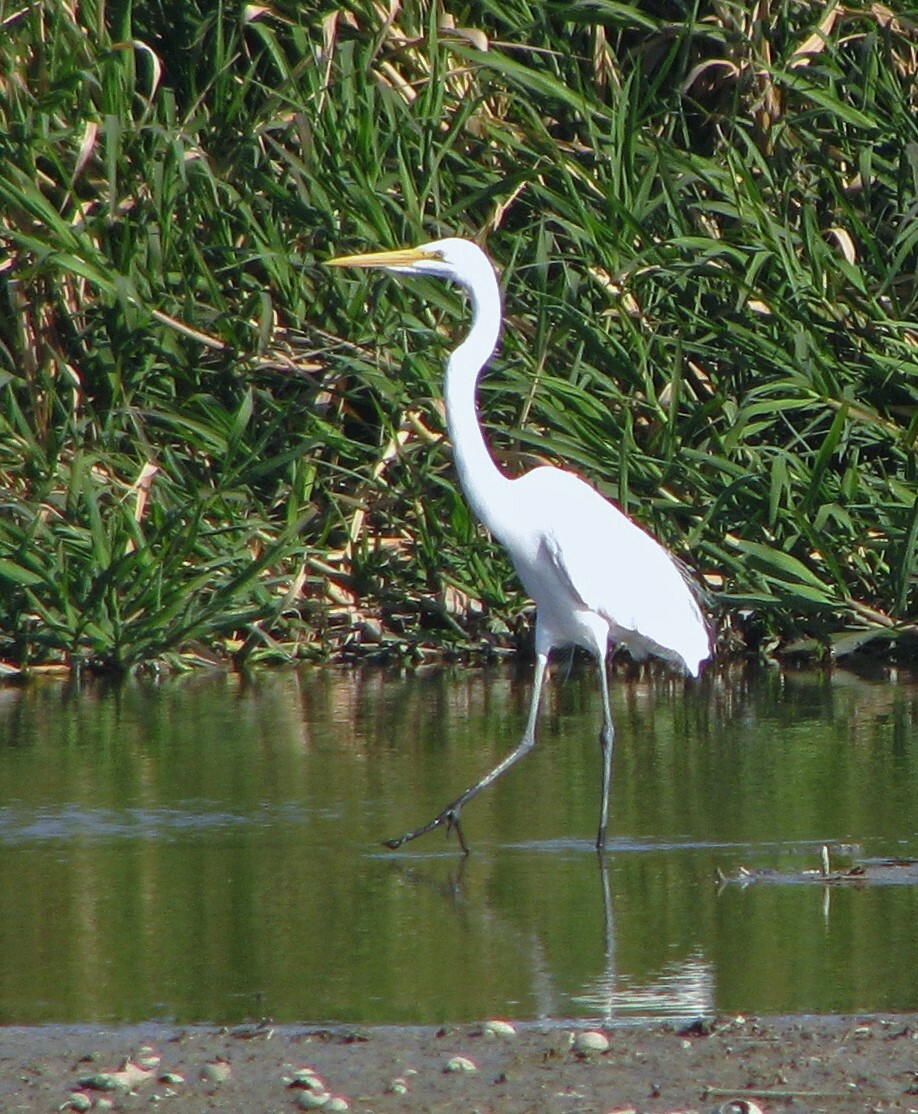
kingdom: Animalia
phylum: Chordata
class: Aves
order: Pelecaniformes
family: Ardeidae
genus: Ardea
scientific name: Ardea alba
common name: Great egret
